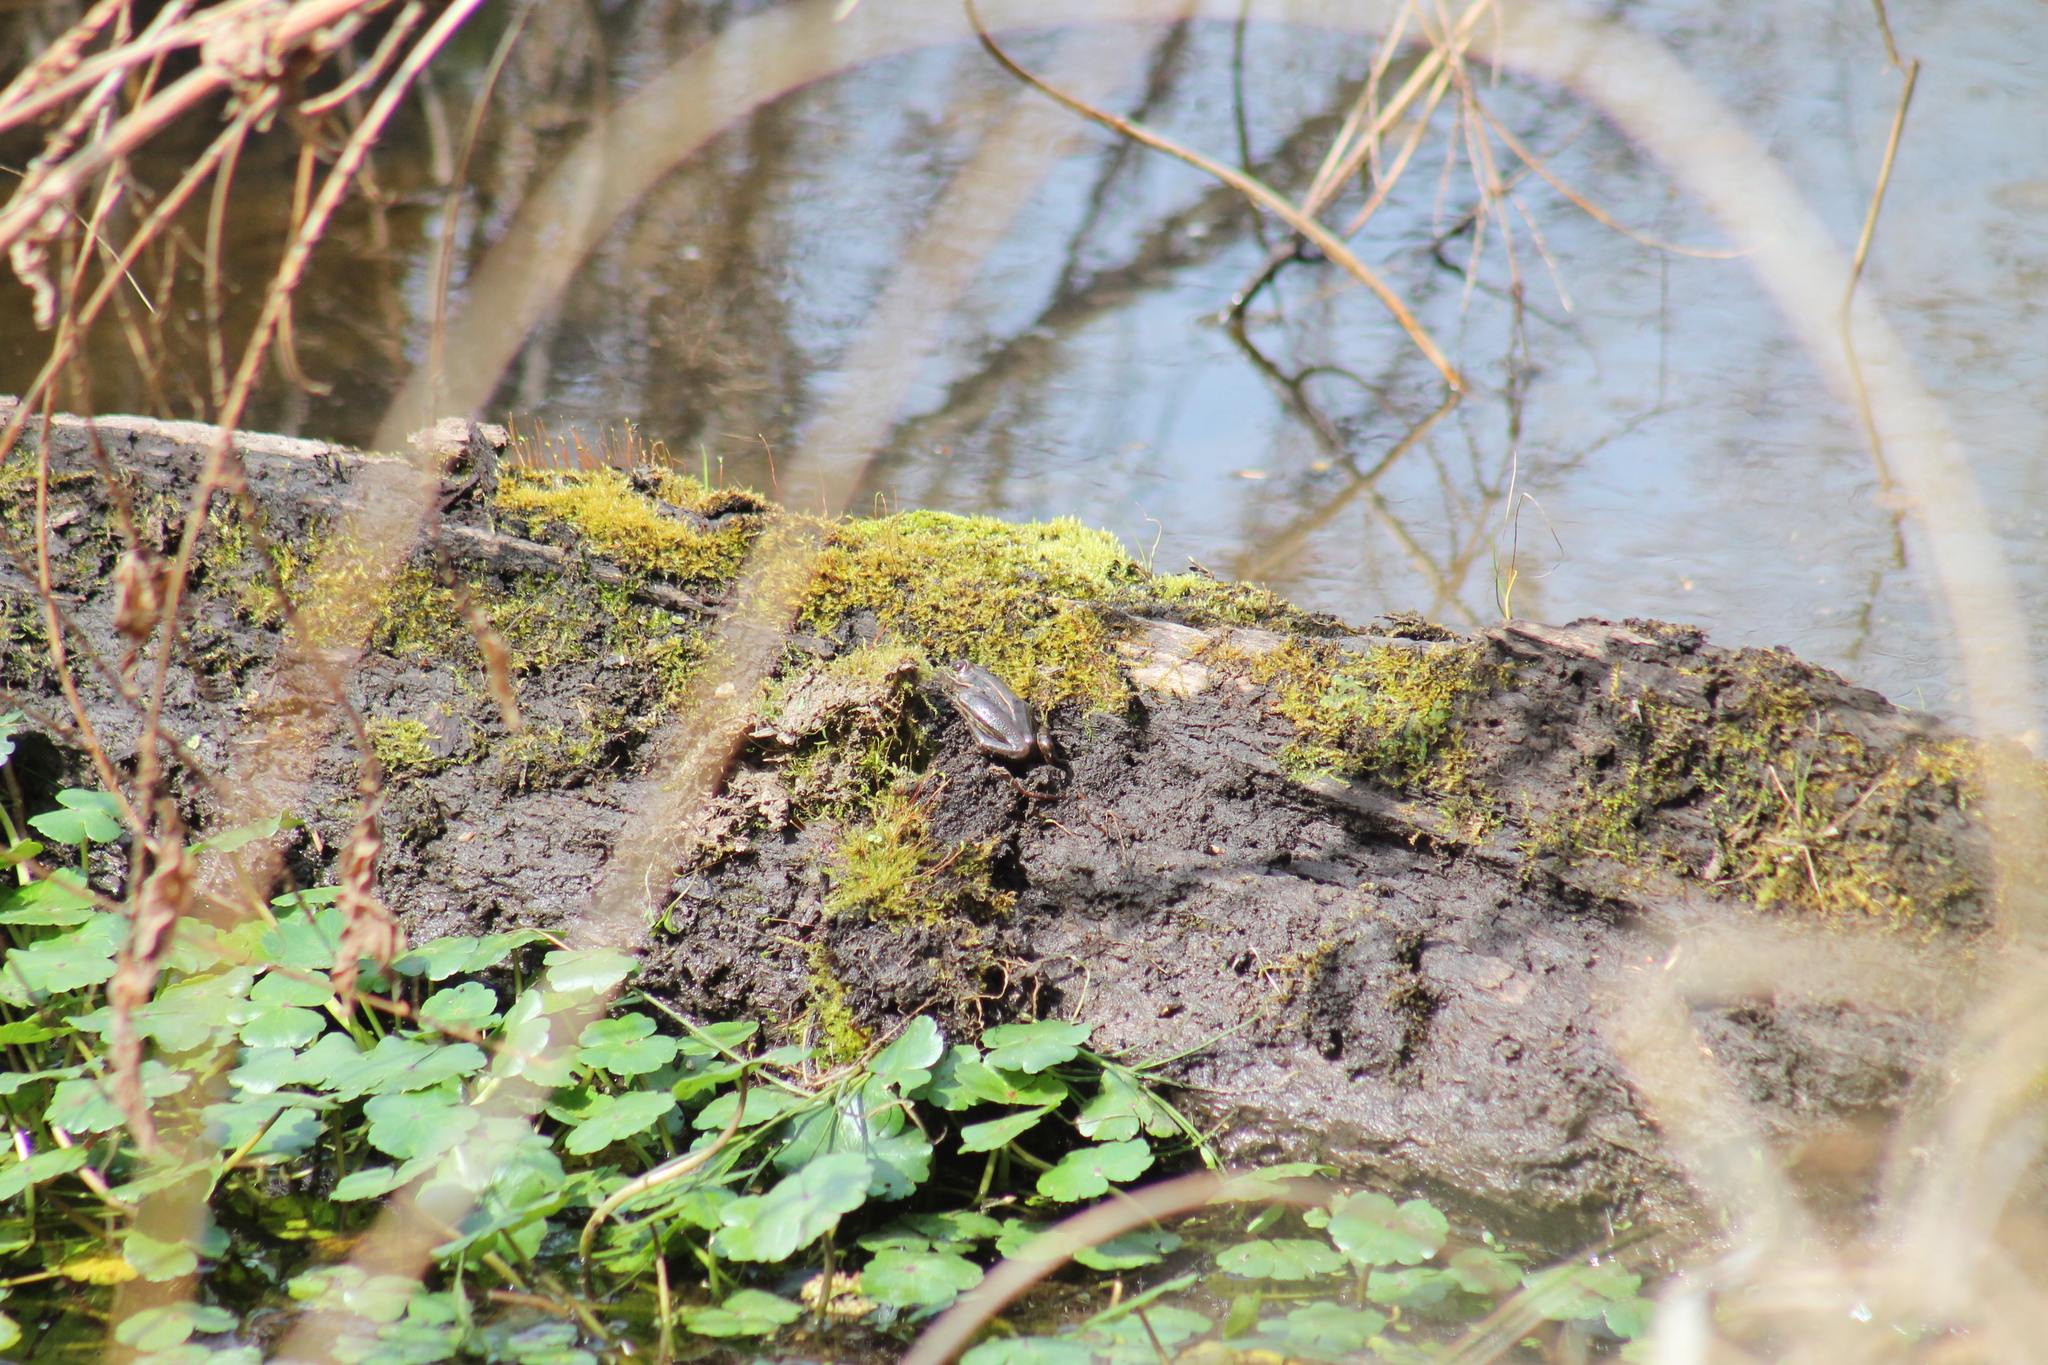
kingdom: Animalia
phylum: Chordata
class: Amphibia
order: Anura
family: Ranidae
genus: Lithobates
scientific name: Lithobates sphenocephalus
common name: Southern leopard frog
